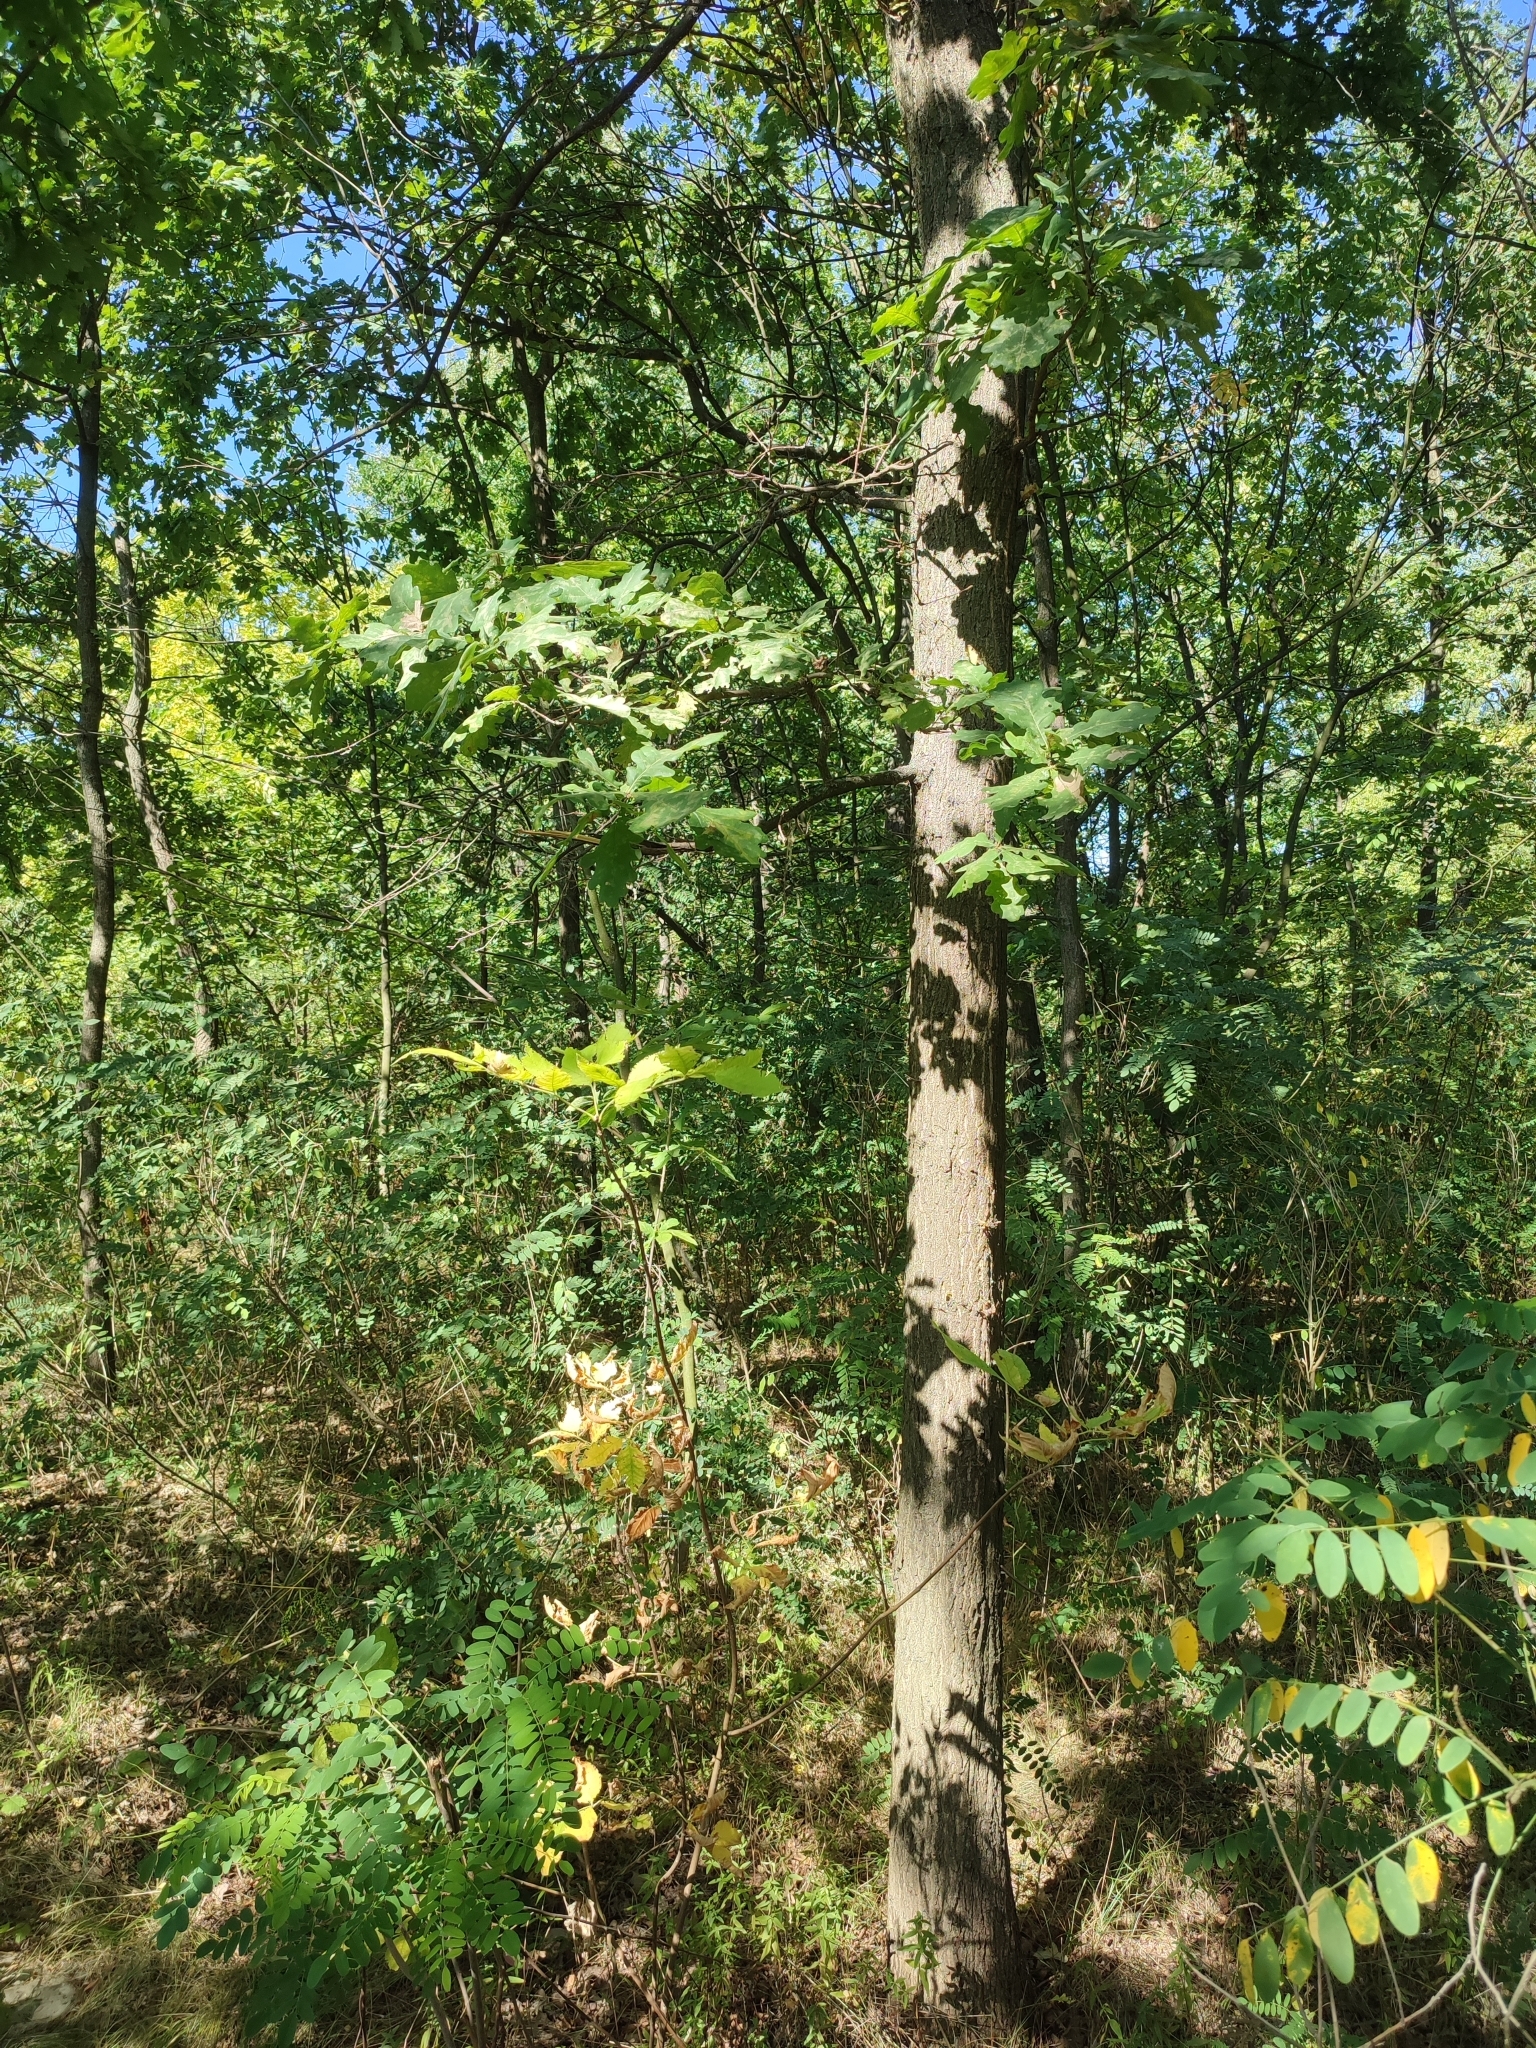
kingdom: Plantae
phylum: Tracheophyta
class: Magnoliopsida
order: Fagales
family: Fagaceae
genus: Quercus
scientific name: Quercus robur
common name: Pedunculate oak
